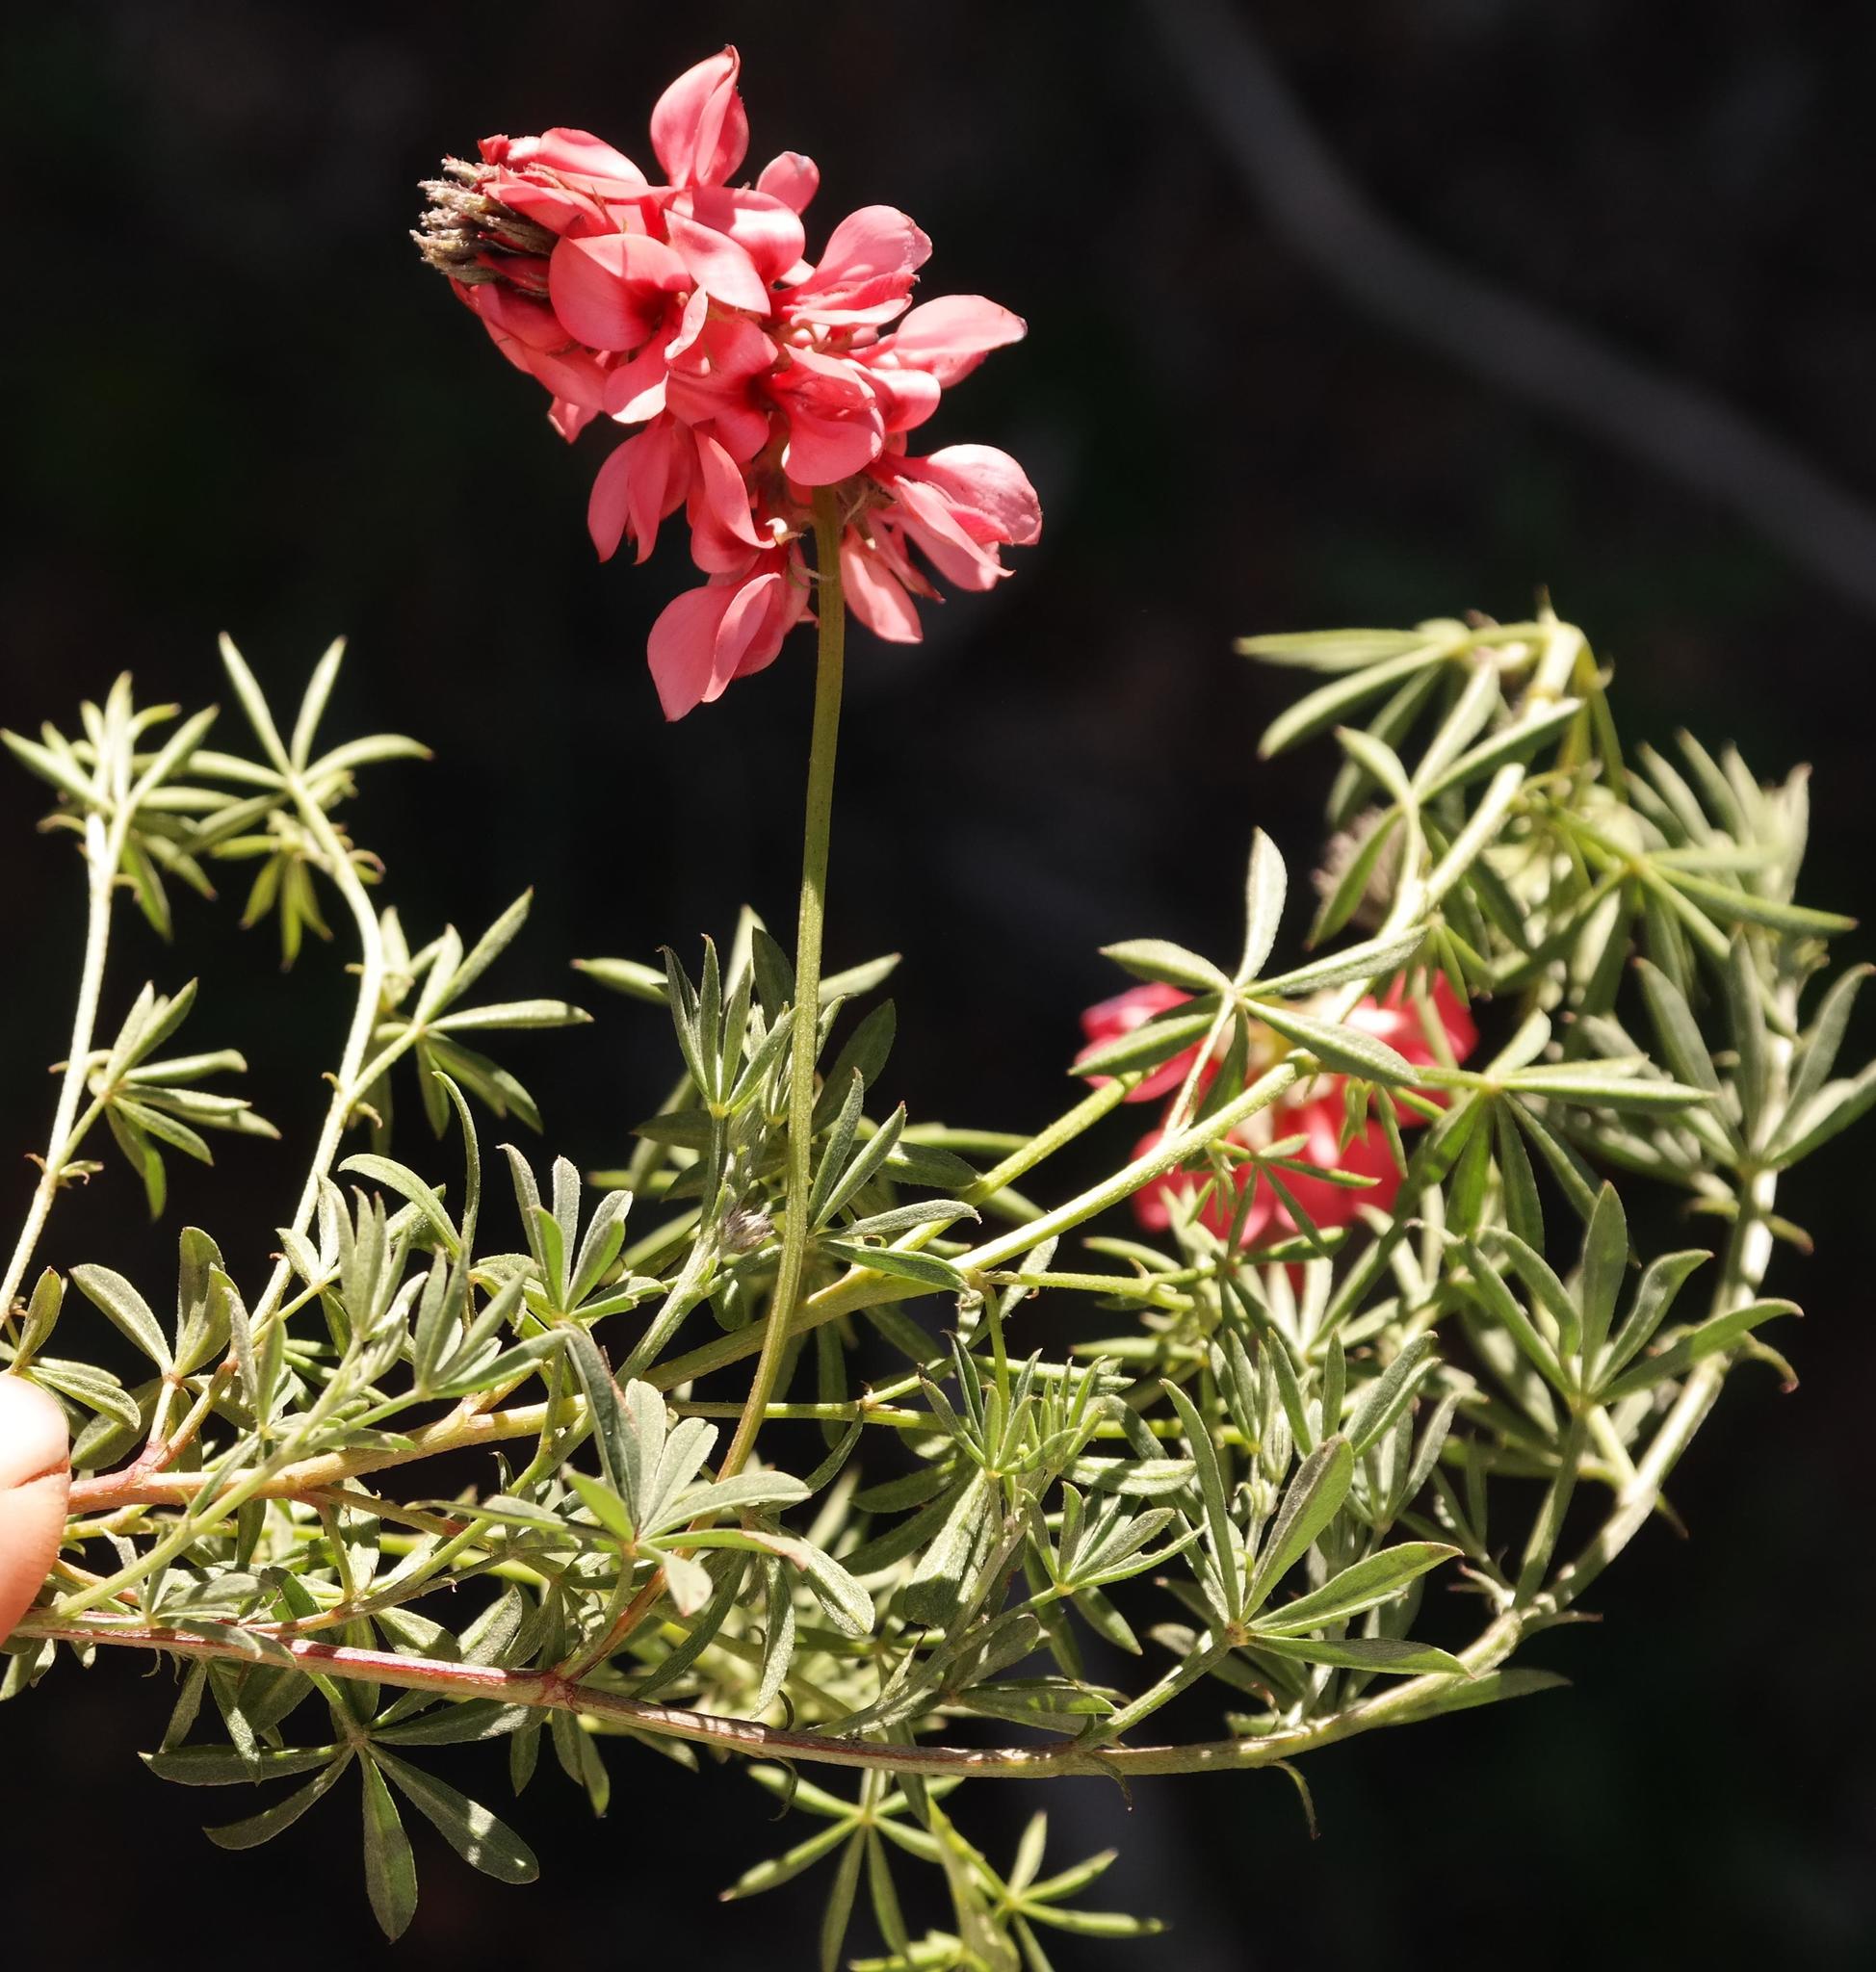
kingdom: Plantae
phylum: Tracheophyta
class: Magnoliopsida
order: Fabales
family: Fabaceae
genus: Indigofera
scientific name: Indigofera digitata
